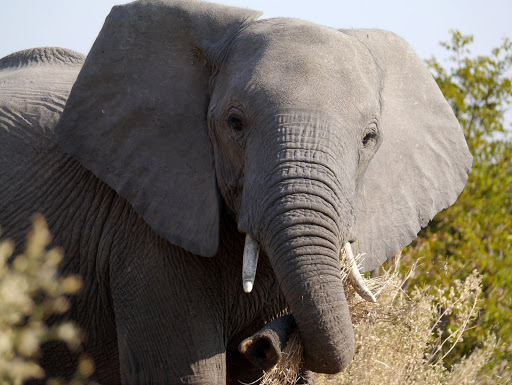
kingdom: Animalia
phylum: Chordata
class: Mammalia
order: Proboscidea
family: Elephantidae
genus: Loxodonta
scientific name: Loxodonta africana
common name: African elephant
